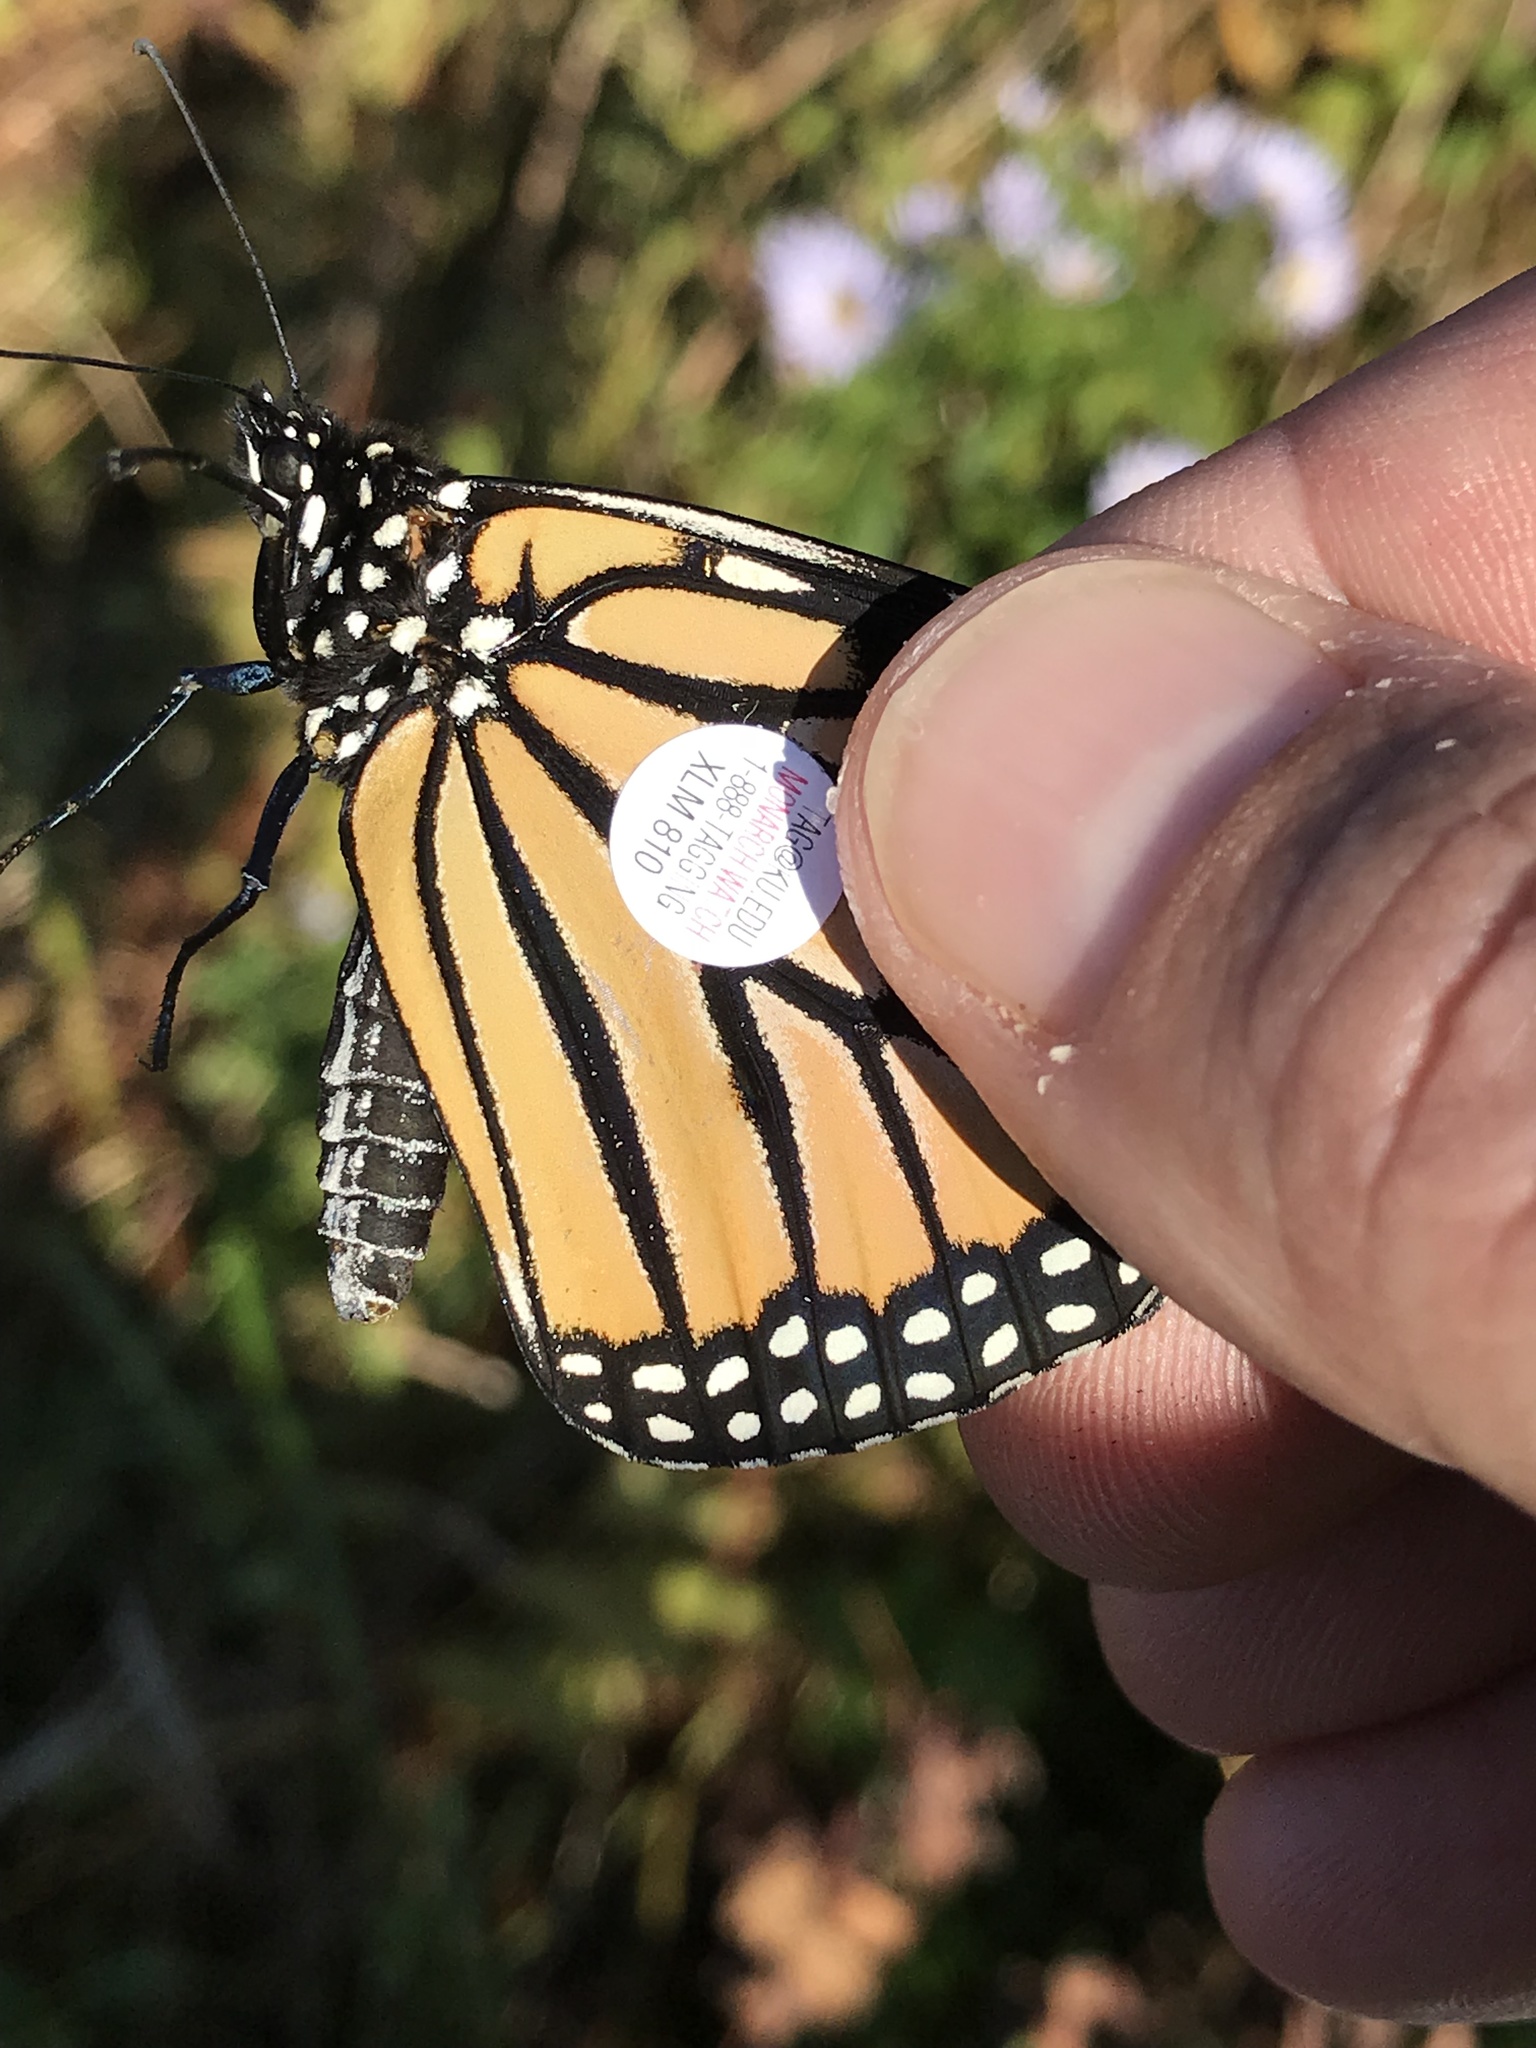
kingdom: Animalia
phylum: Arthropoda
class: Insecta
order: Lepidoptera
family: Nymphalidae
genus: Danaus
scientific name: Danaus plexippus
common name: Monarch
